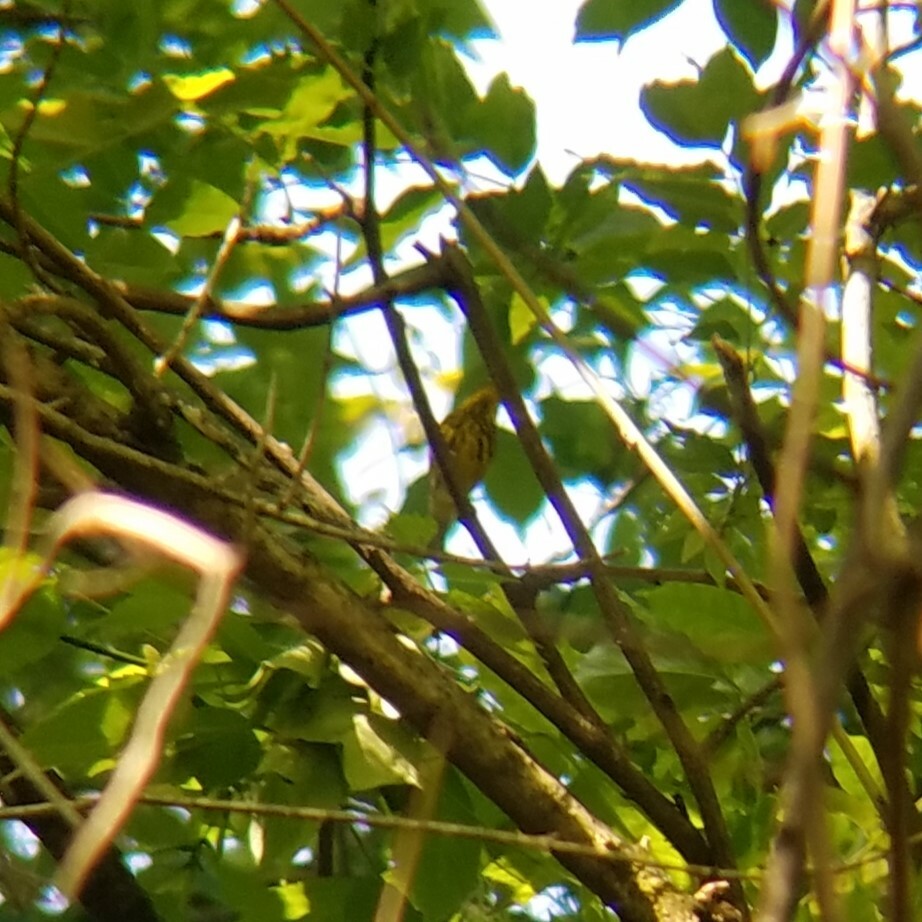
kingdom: Animalia
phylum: Chordata
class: Aves
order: Passeriformes
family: Parulidae
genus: Setophaga
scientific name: Setophaga tigrina
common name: Cape may warbler
